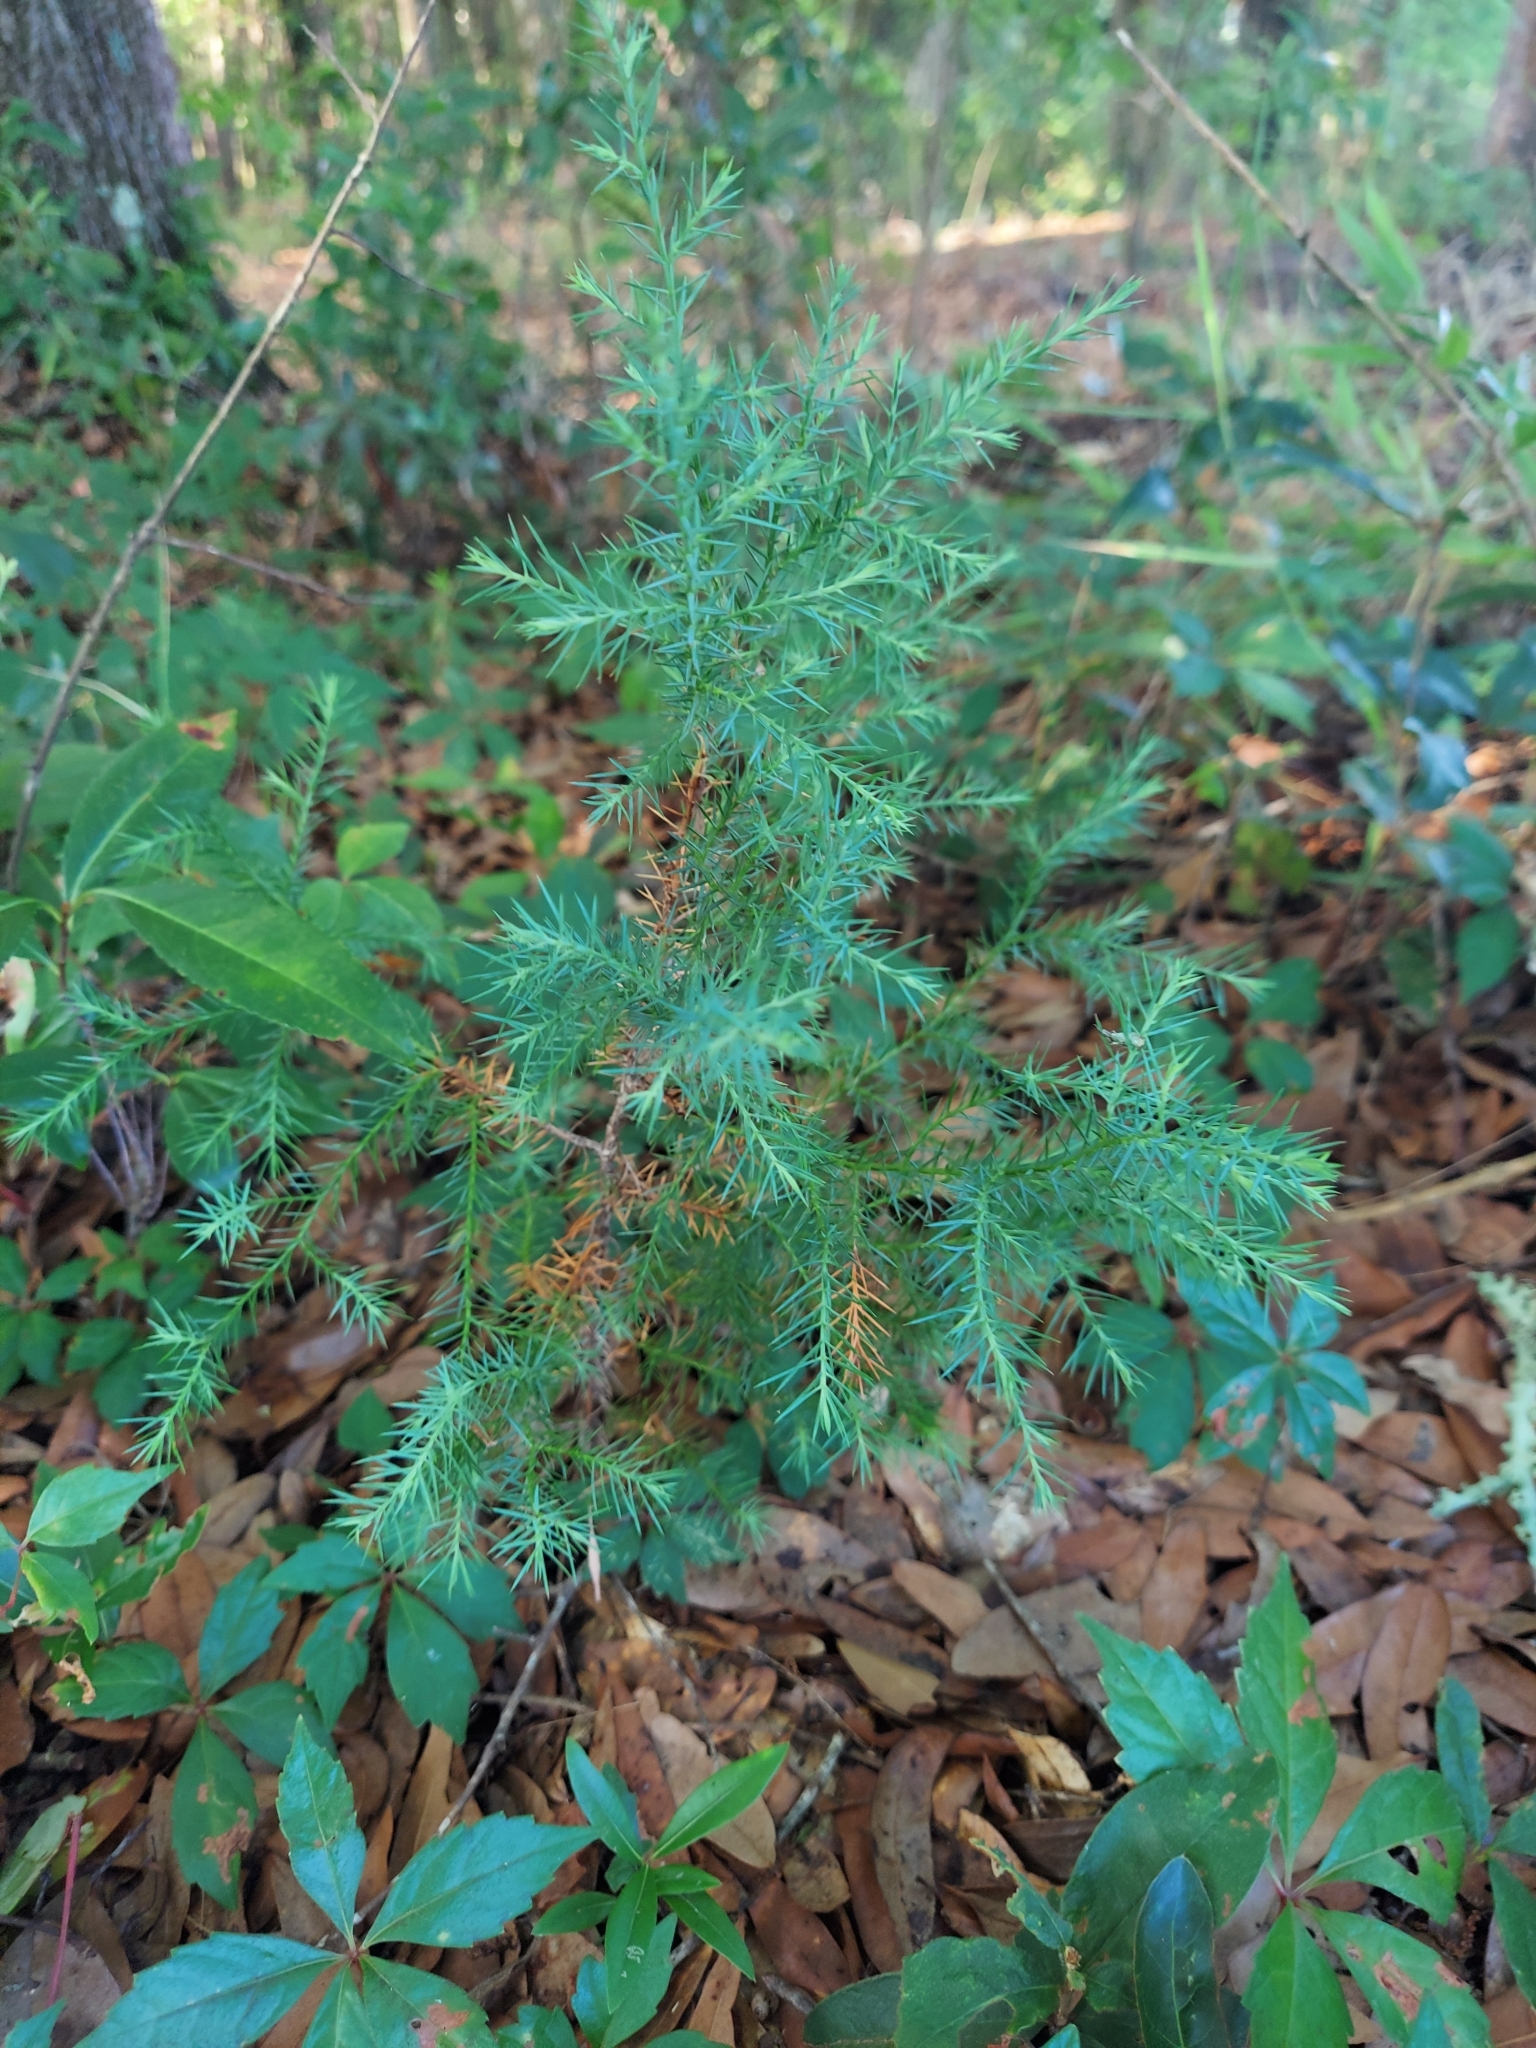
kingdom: Plantae
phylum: Tracheophyta
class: Pinopsida
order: Pinales
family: Cupressaceae
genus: Juniperus
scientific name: Juniperus virginiana
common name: Red juniper
